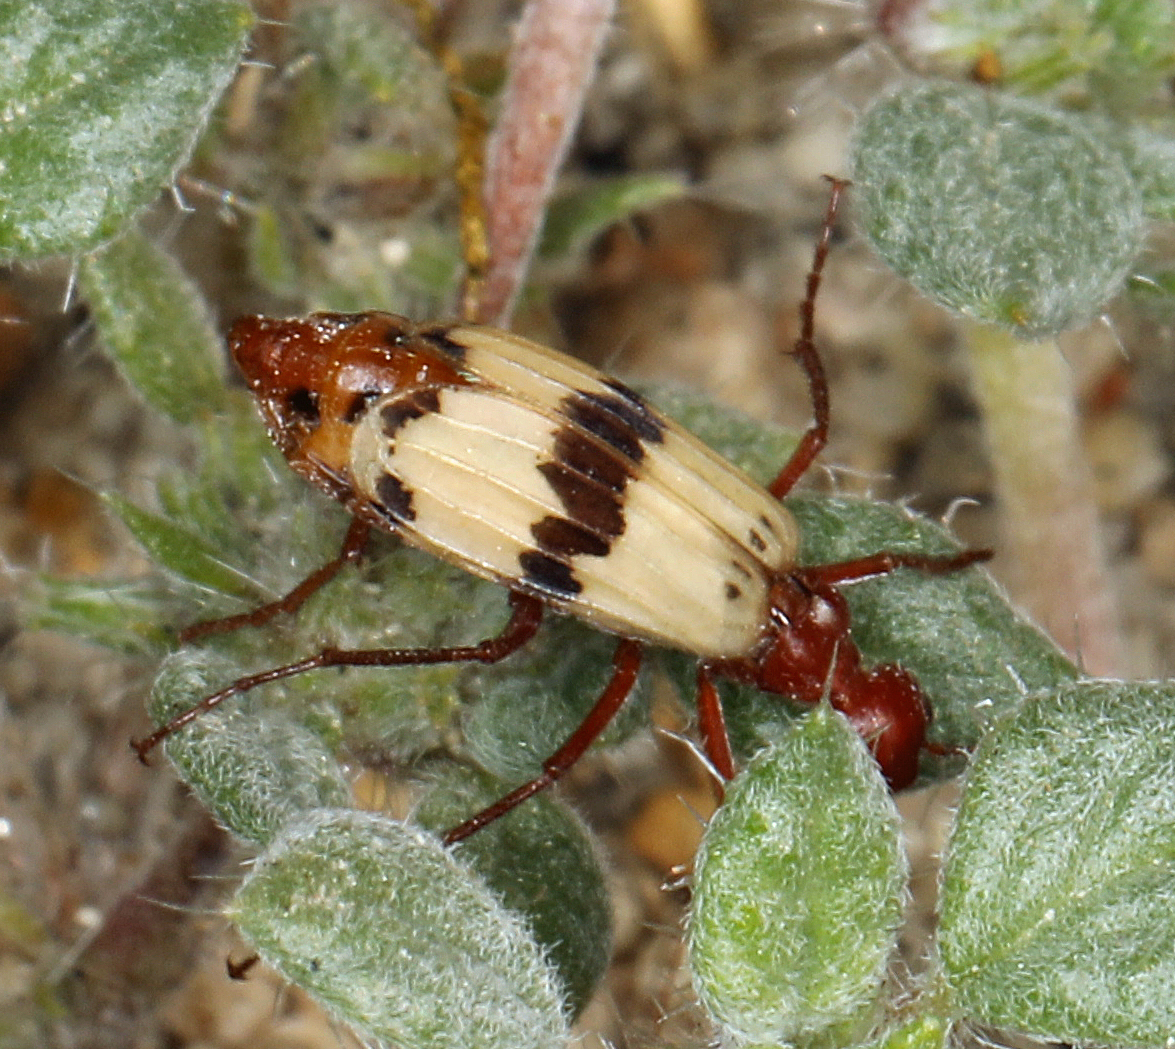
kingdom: Animalia
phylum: Arthropoda
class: Insecta
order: Coleoptera
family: Meloidae
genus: Pleuropasta
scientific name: Pleuropasta mirabilis
